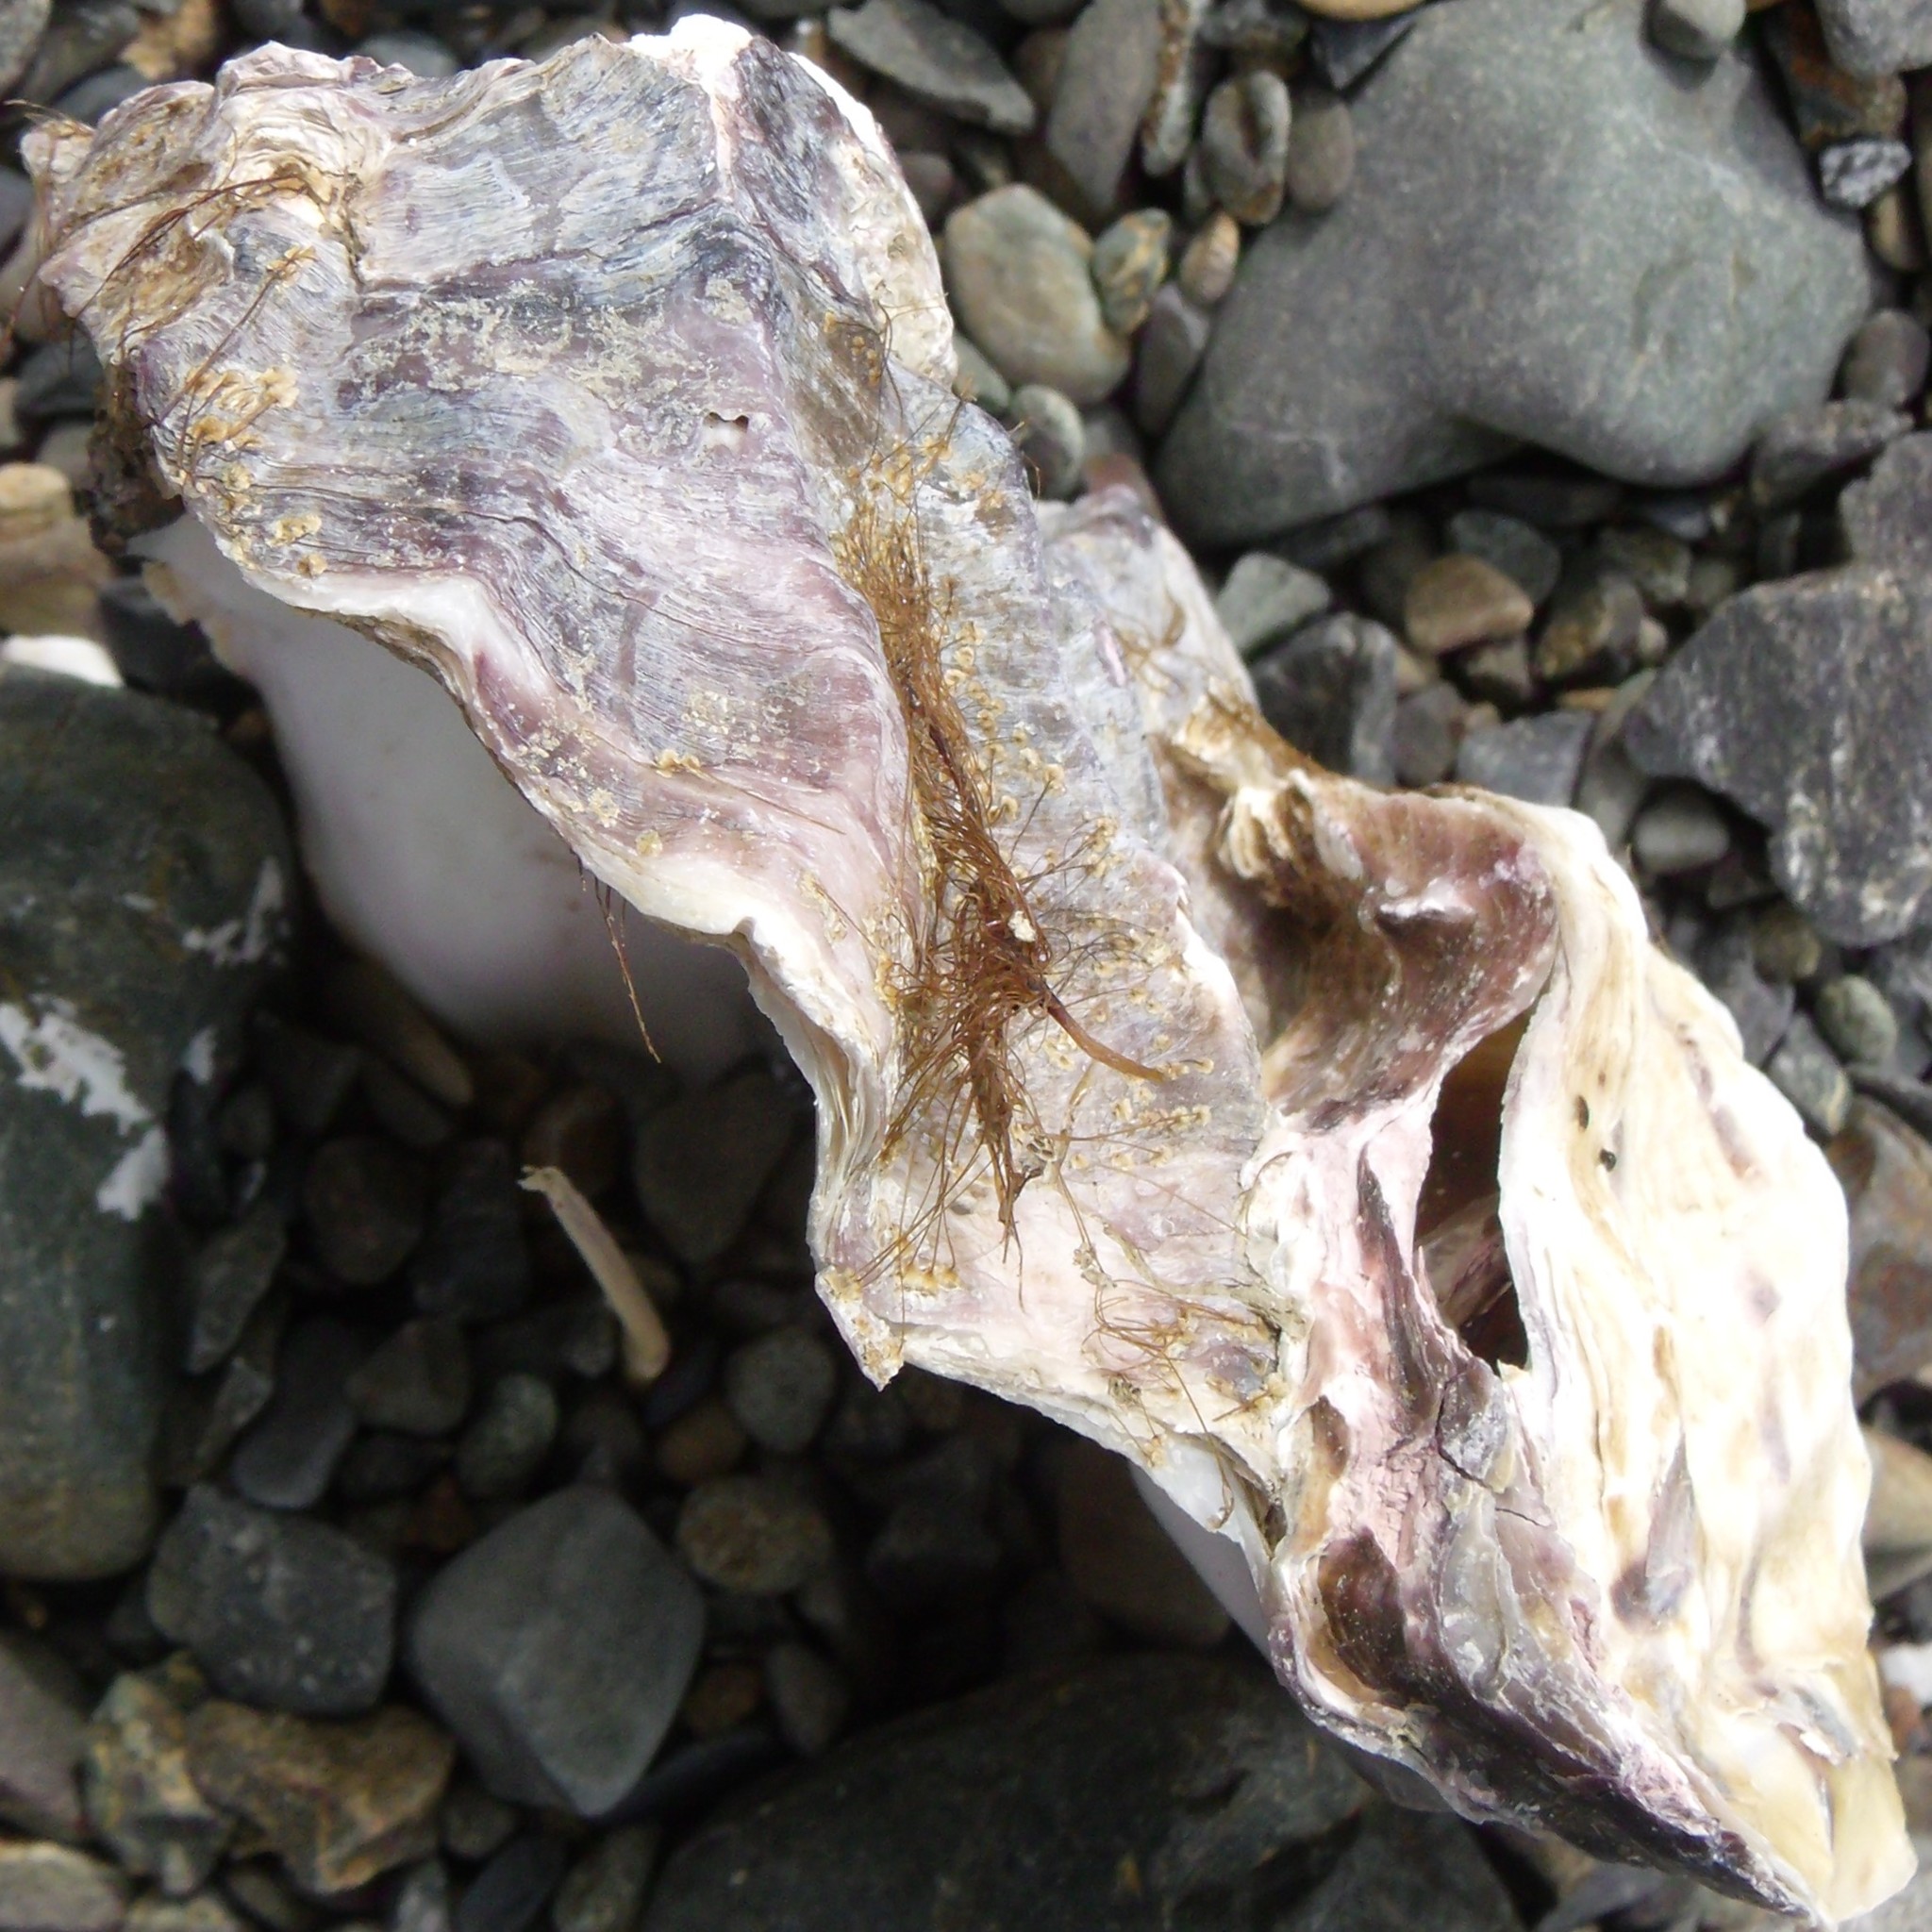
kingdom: Animalia
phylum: Mollusca
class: Bivalvia
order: Ostreida
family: Ostreidae
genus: Magallana
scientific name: Magallana gigas
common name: Pacific oyster
